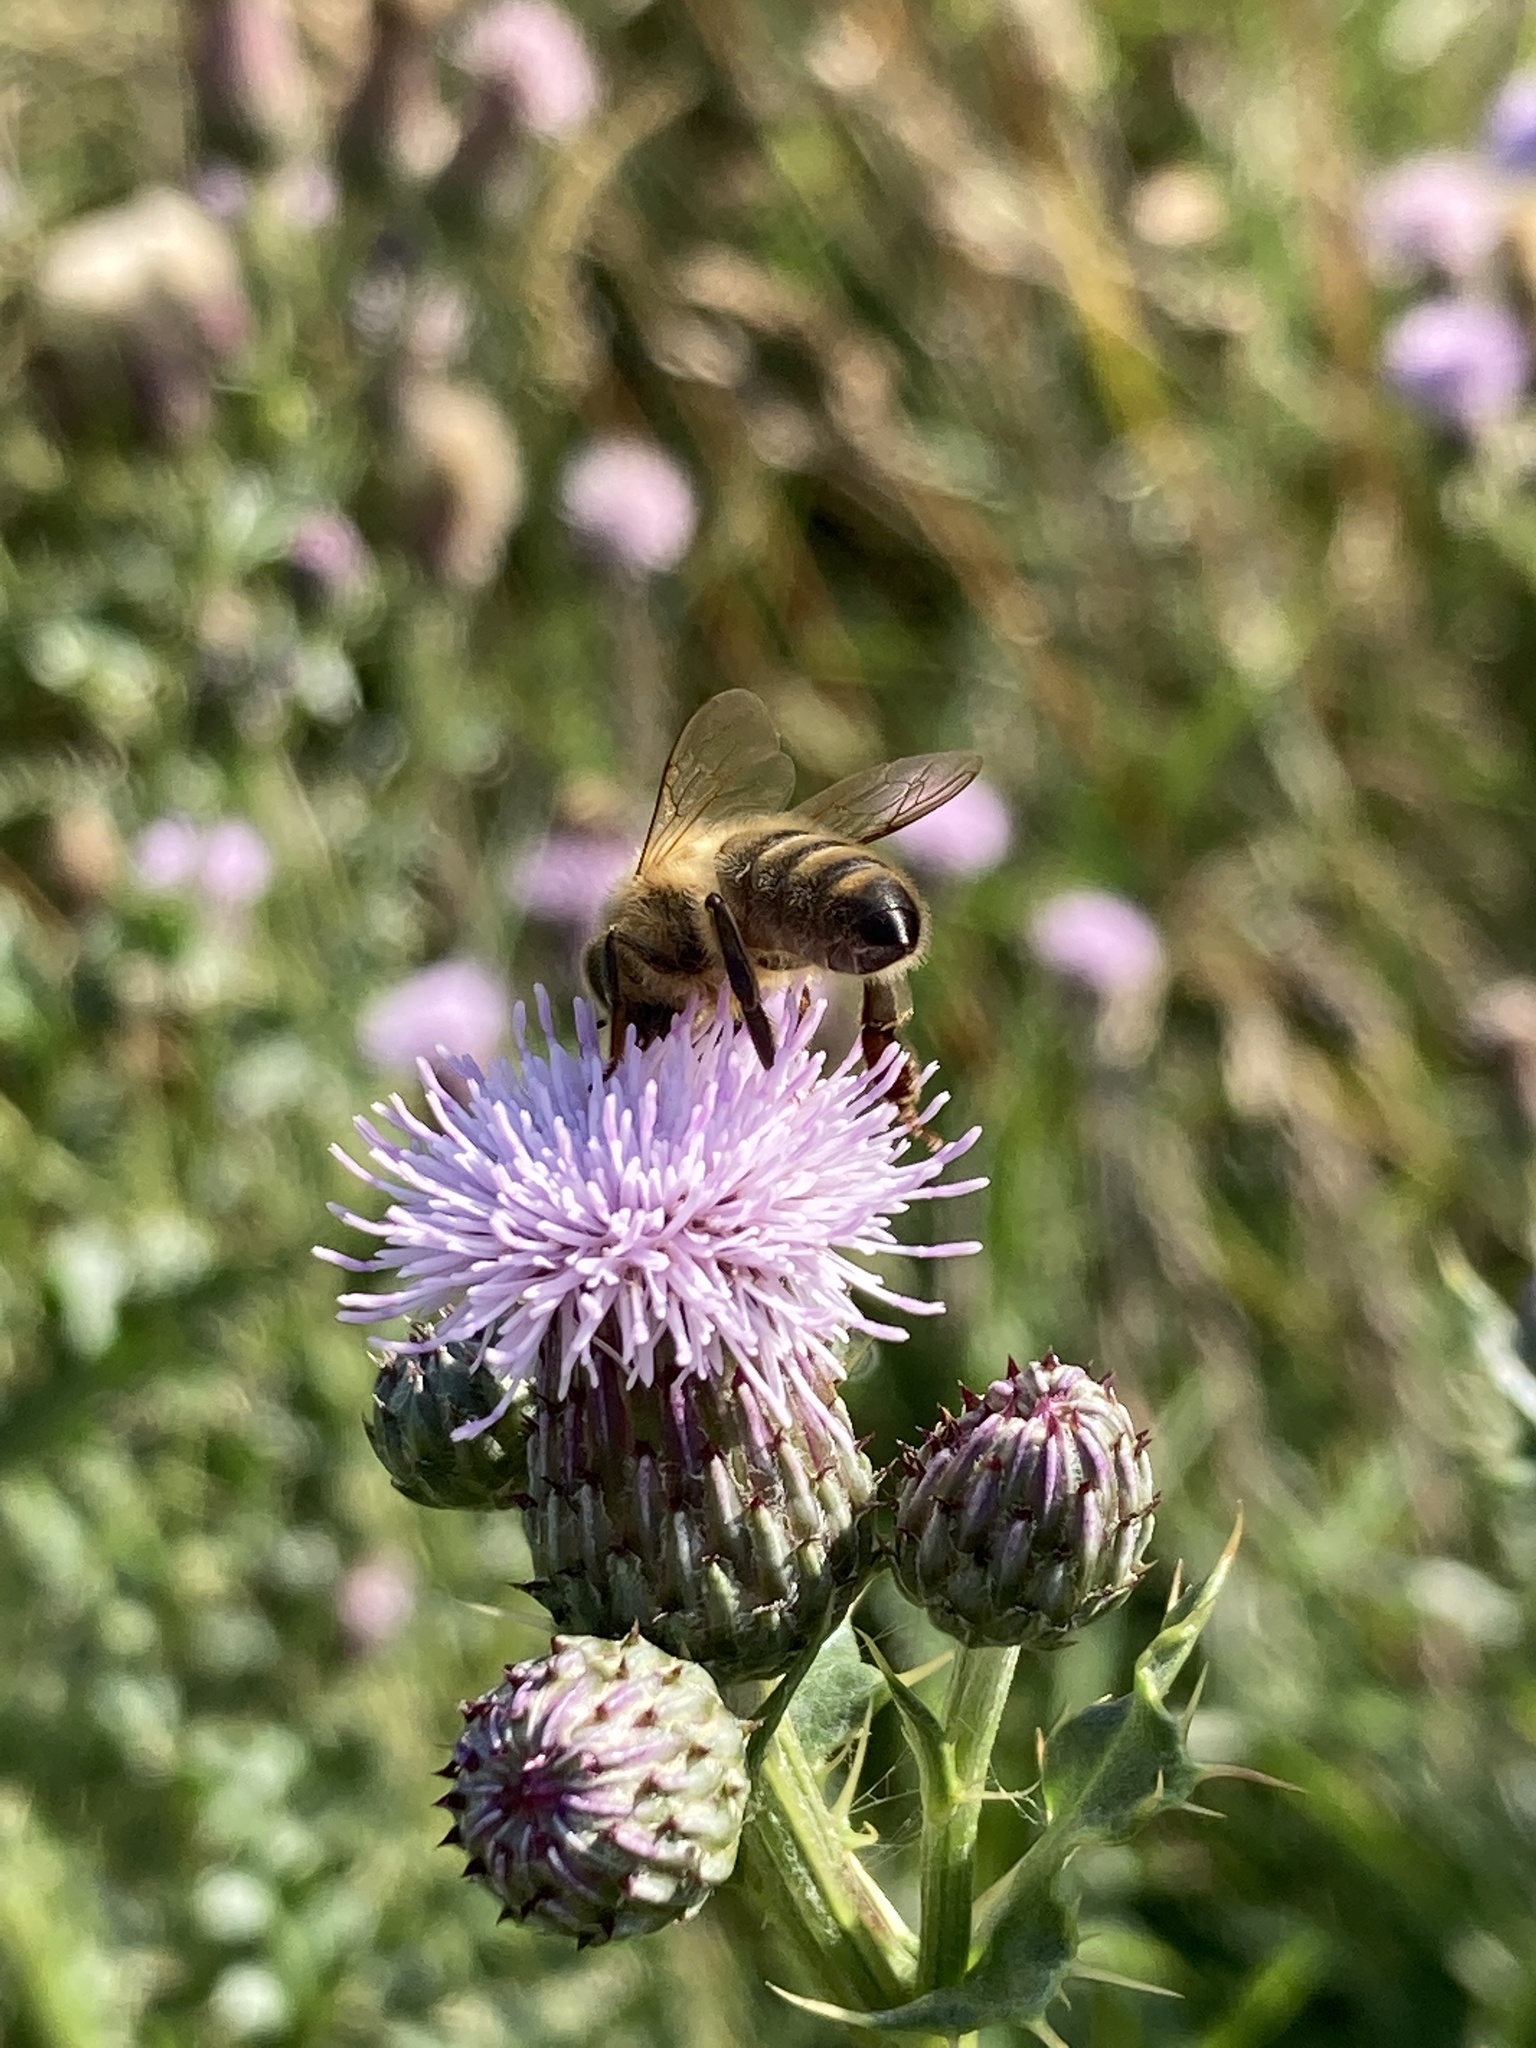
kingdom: Animalia
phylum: Arthropoda
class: Insecta
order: Hymenoptera
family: Apidae
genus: Apis
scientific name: Apis mellifera
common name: Honey bee
